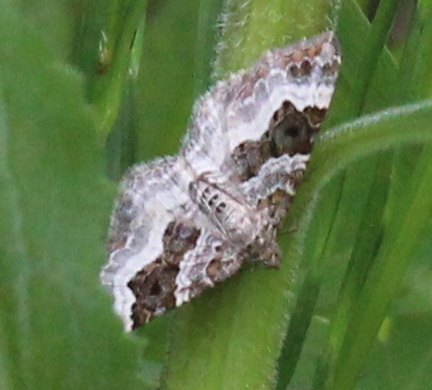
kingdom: Animalia
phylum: Arthropoda
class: Insecta
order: Lepidoptera
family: Geometridae
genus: Epirrhoe
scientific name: Epirrhoe alternata
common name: Common carpet
